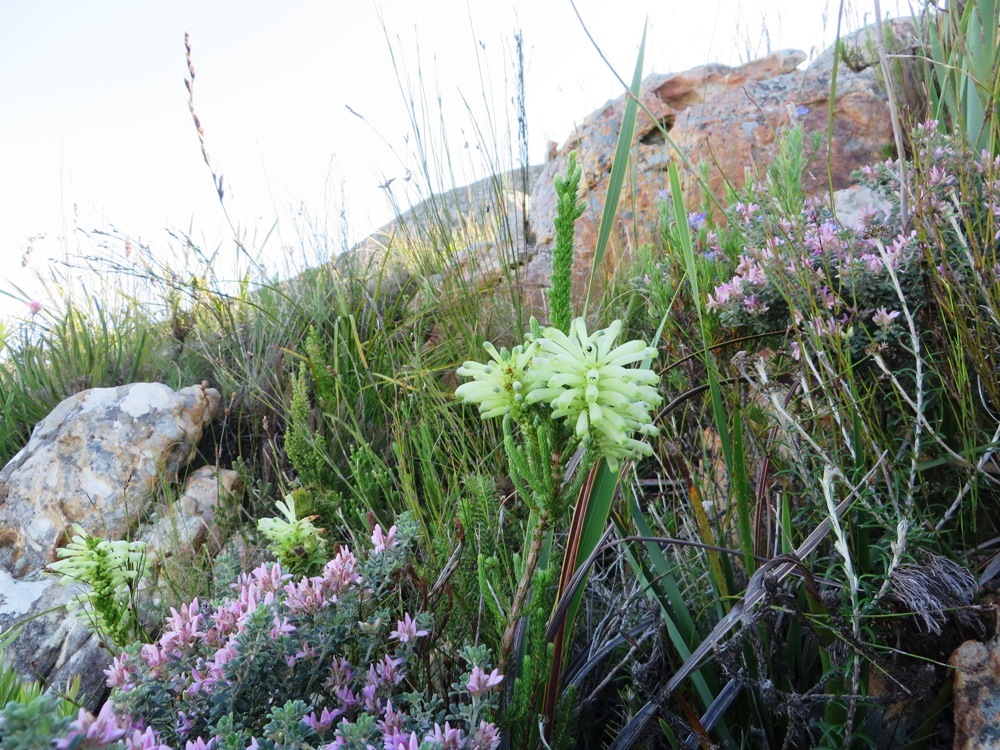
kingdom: Plantae
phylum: Tracheophyta
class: Magnoliopsida
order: Ericales
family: Ericaceae
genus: Erica
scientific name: Erica sessiliflora
